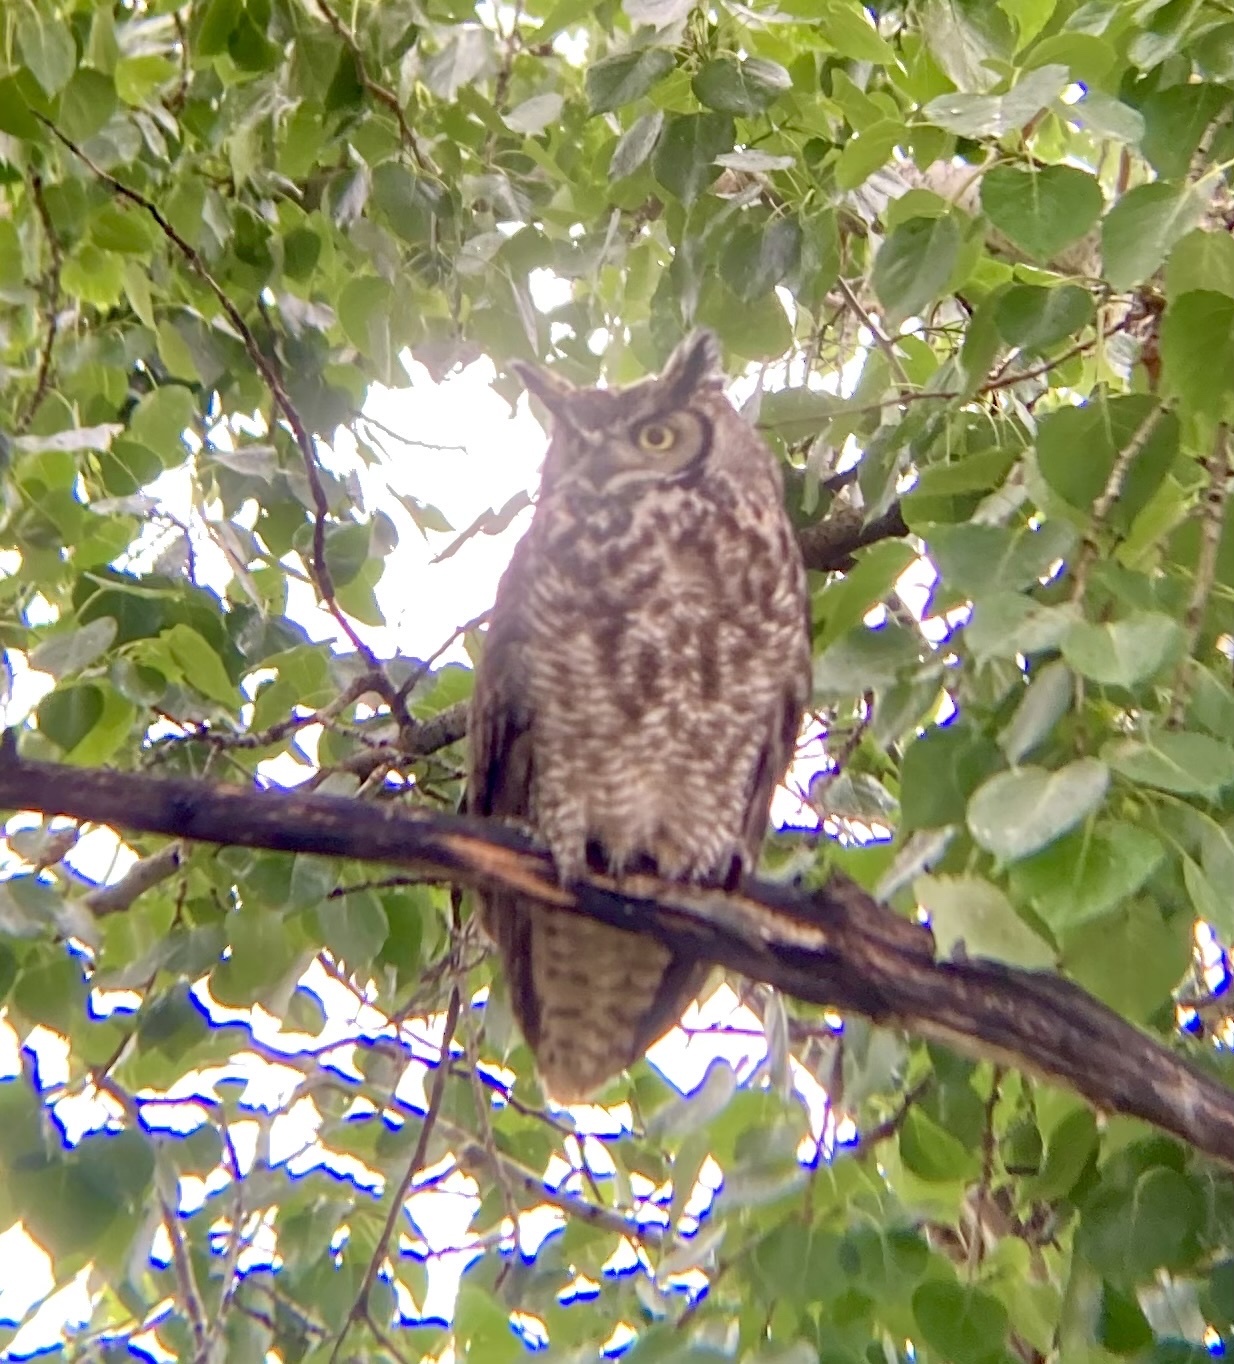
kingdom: Animalia
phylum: Chordata
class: Aves
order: Strigiformes
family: Strigidae
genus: Bubo
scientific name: Bubo virginianus
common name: Great horned owl
